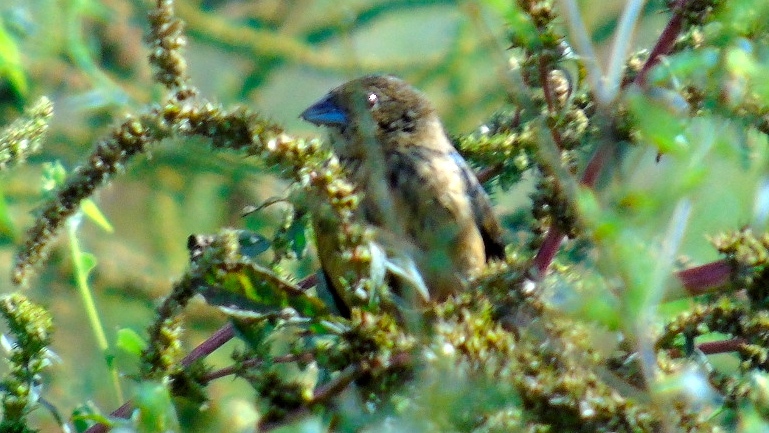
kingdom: Animalia
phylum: Chordata
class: Aves
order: Passeriformes
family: Thraupidae
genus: Volatinia
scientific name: Volatinia jacarina
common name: Blue-black grassquit
